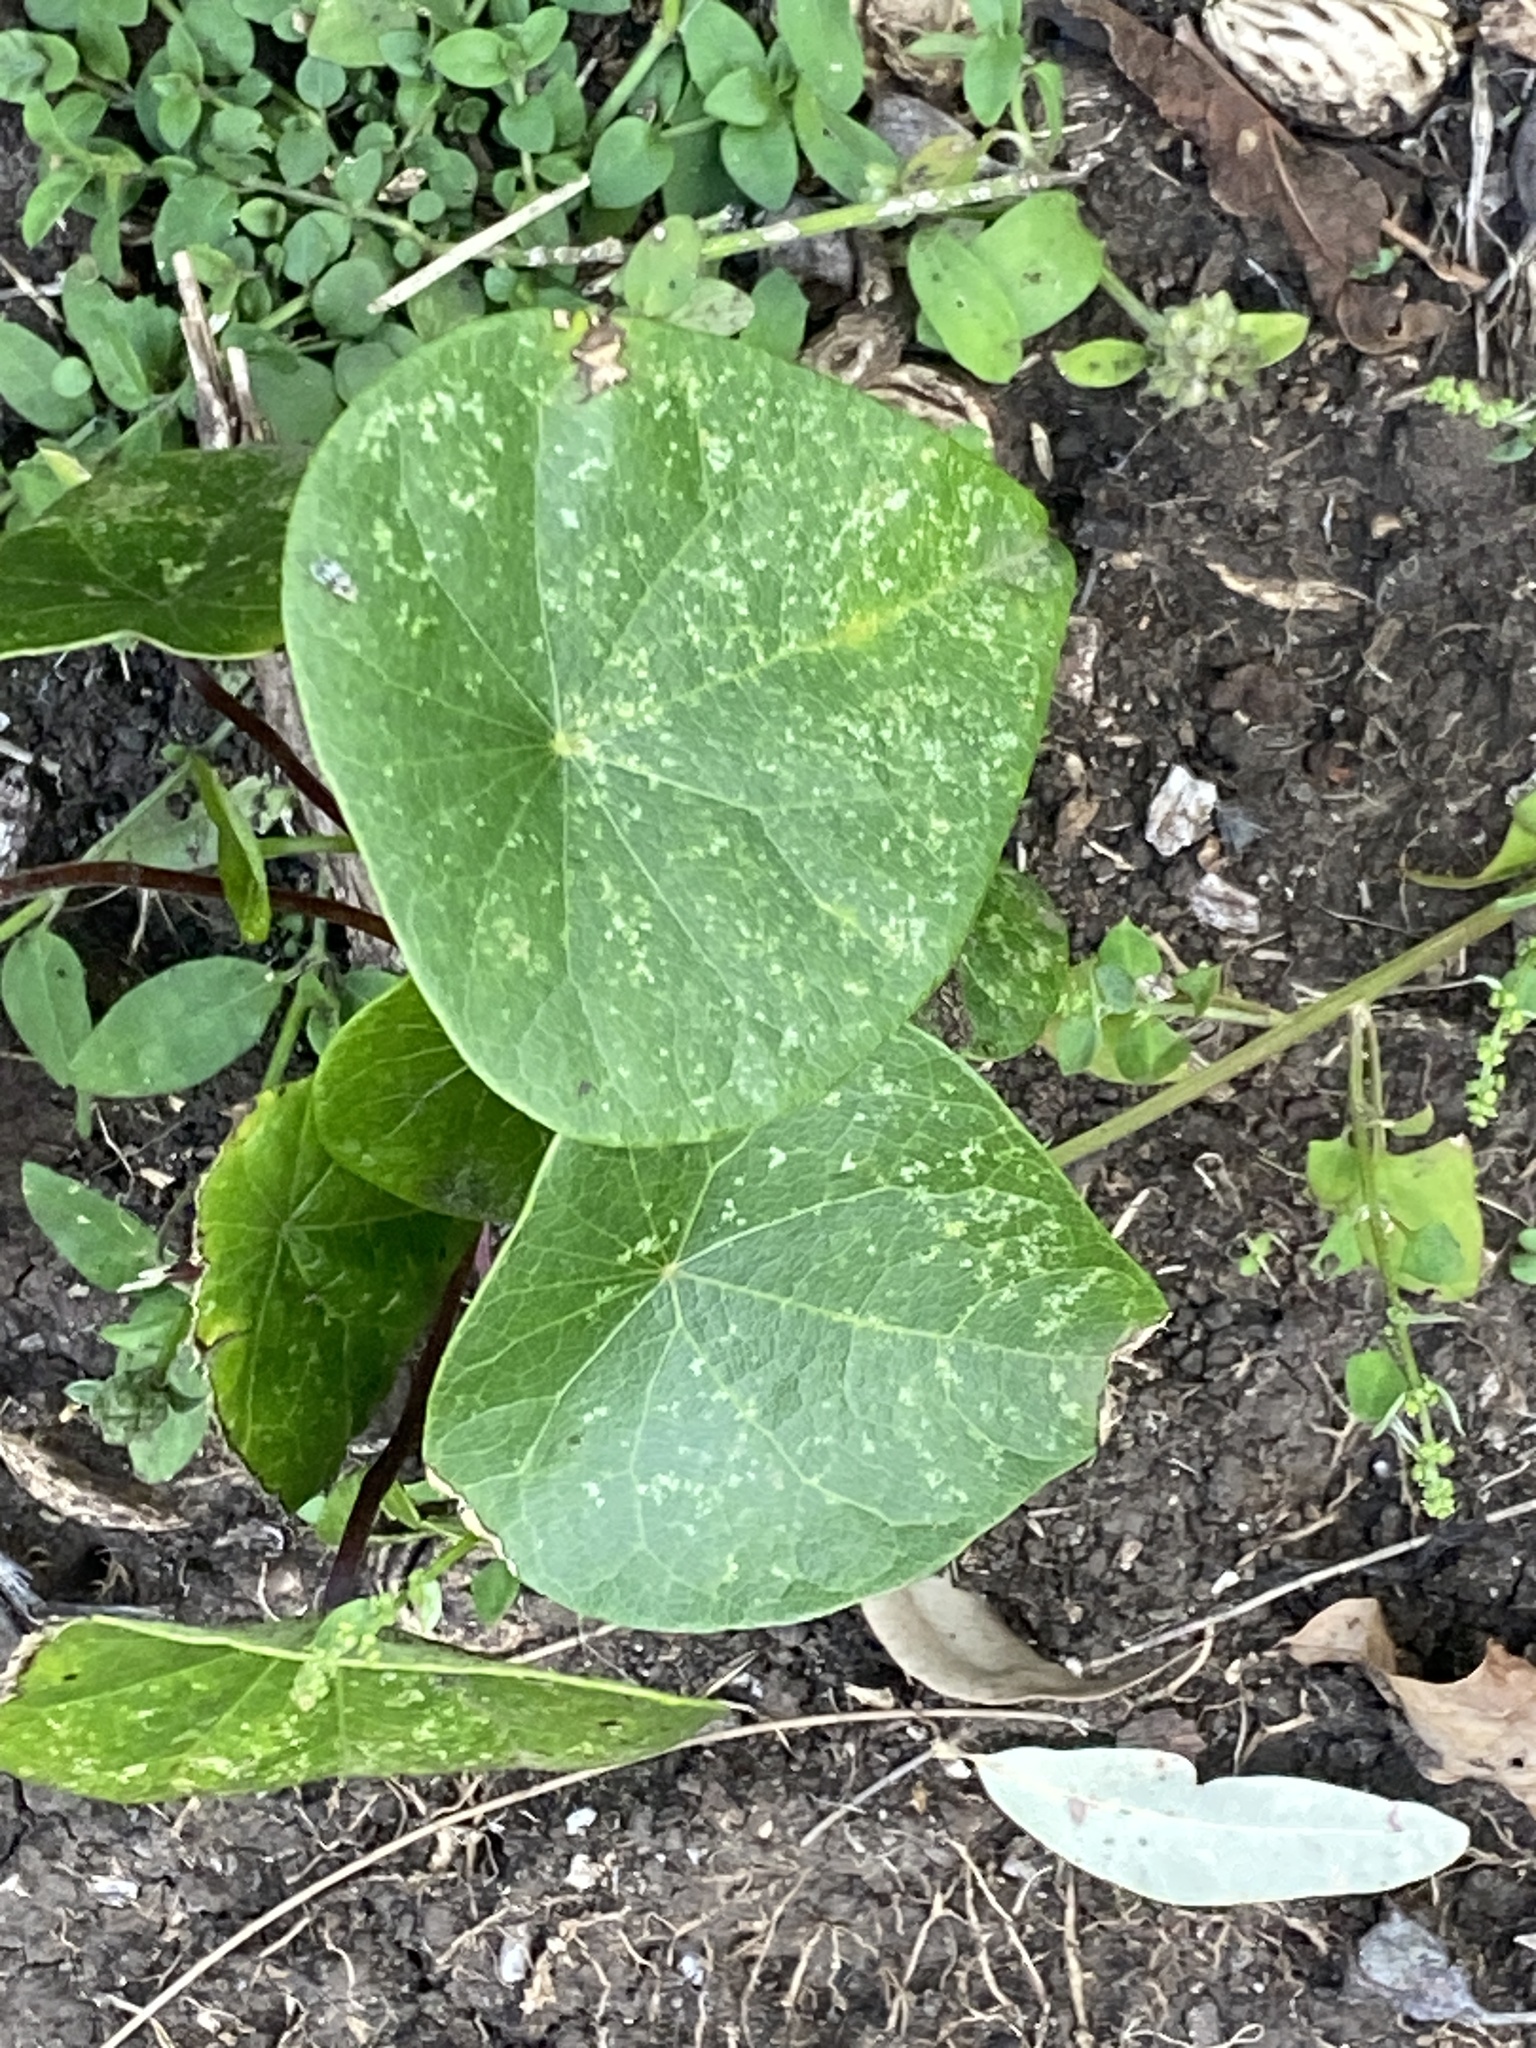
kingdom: Plantae
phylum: Tracheophyta
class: Magnoliopsida
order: Ranunculales
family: Menispermaceae
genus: Stephania
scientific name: Stephania japonica
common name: Snake vine
